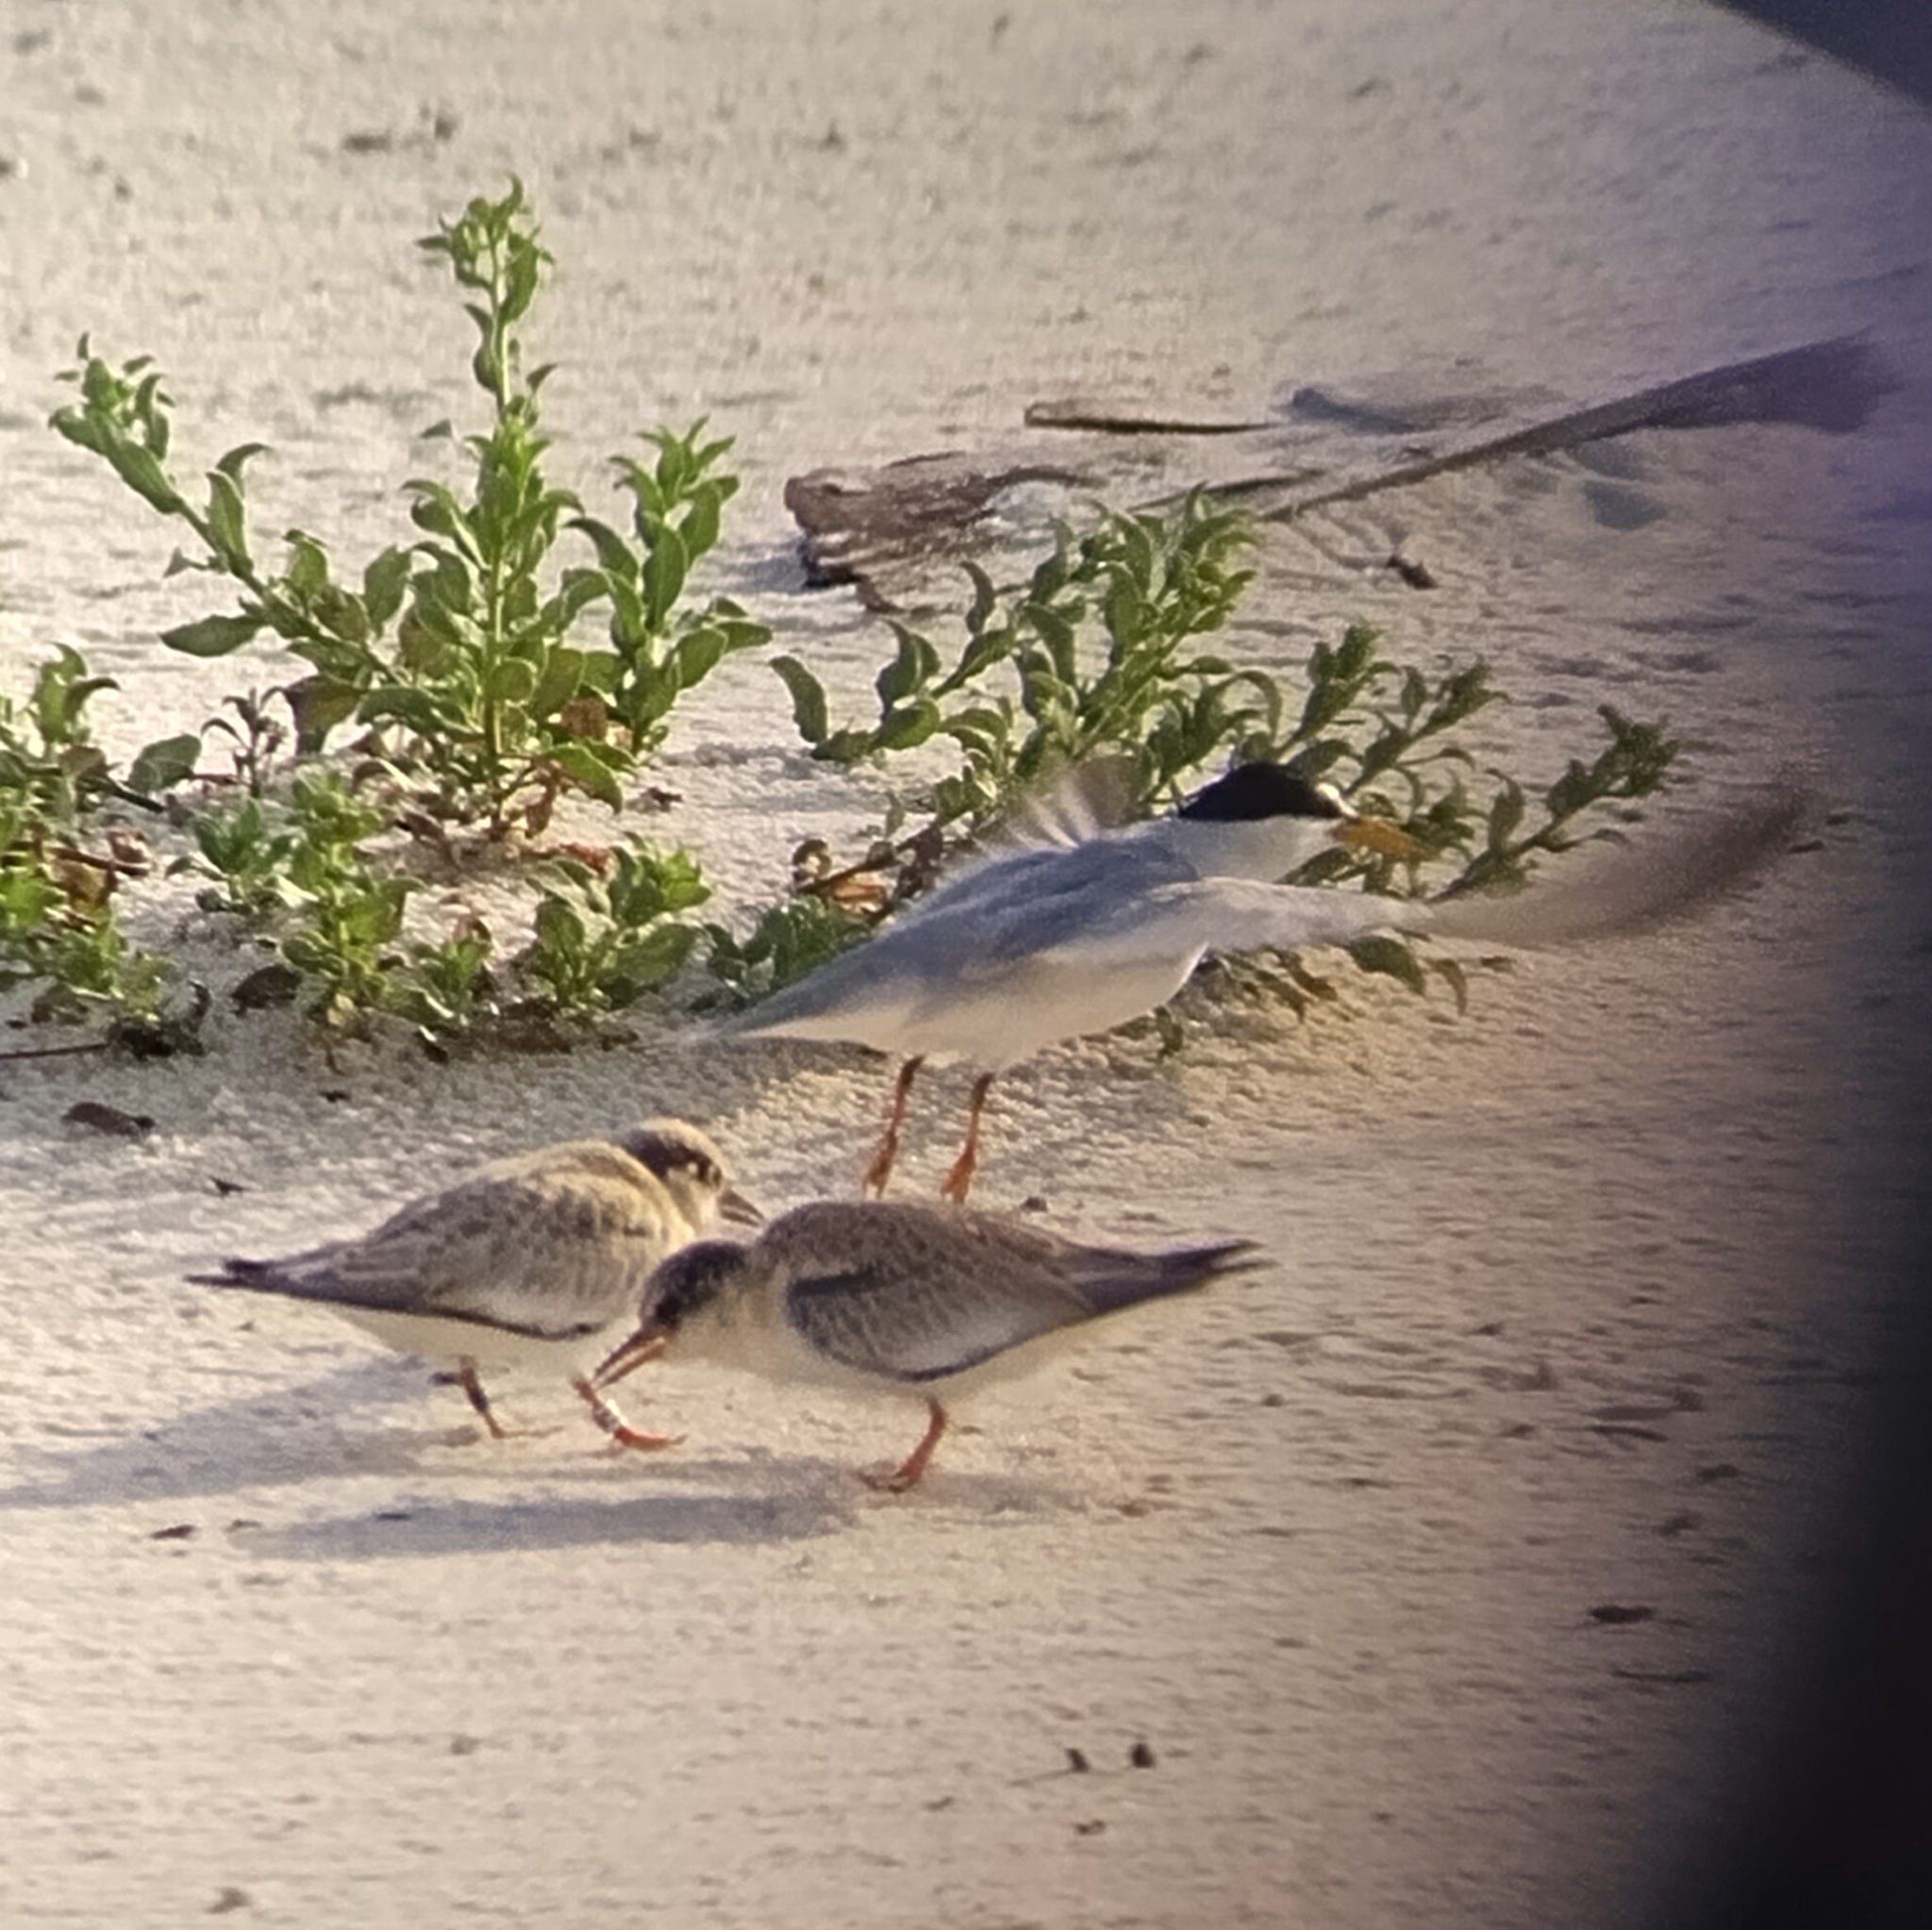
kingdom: Animalia
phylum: Chordata
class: Aves
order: Charadriiformes
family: Laridae
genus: Sternula
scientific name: Sternula antillarum
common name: Least tern
